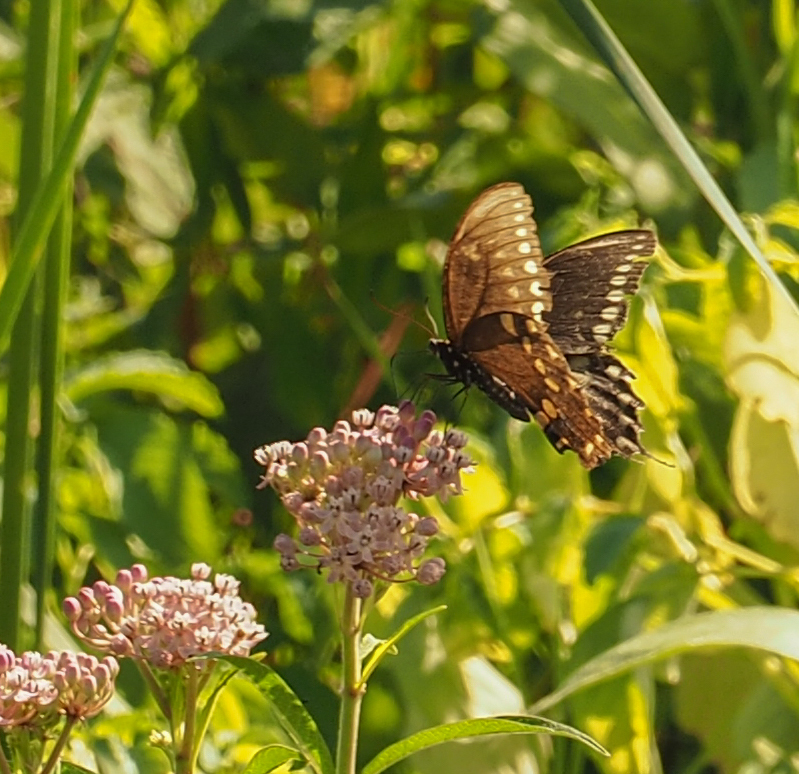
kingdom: Animalia
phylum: Arthropoda
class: Insecta
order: Lepidoptera
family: Papilionidae
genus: Papilio
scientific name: Papilio troilus
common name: Spicebush swallowtail
